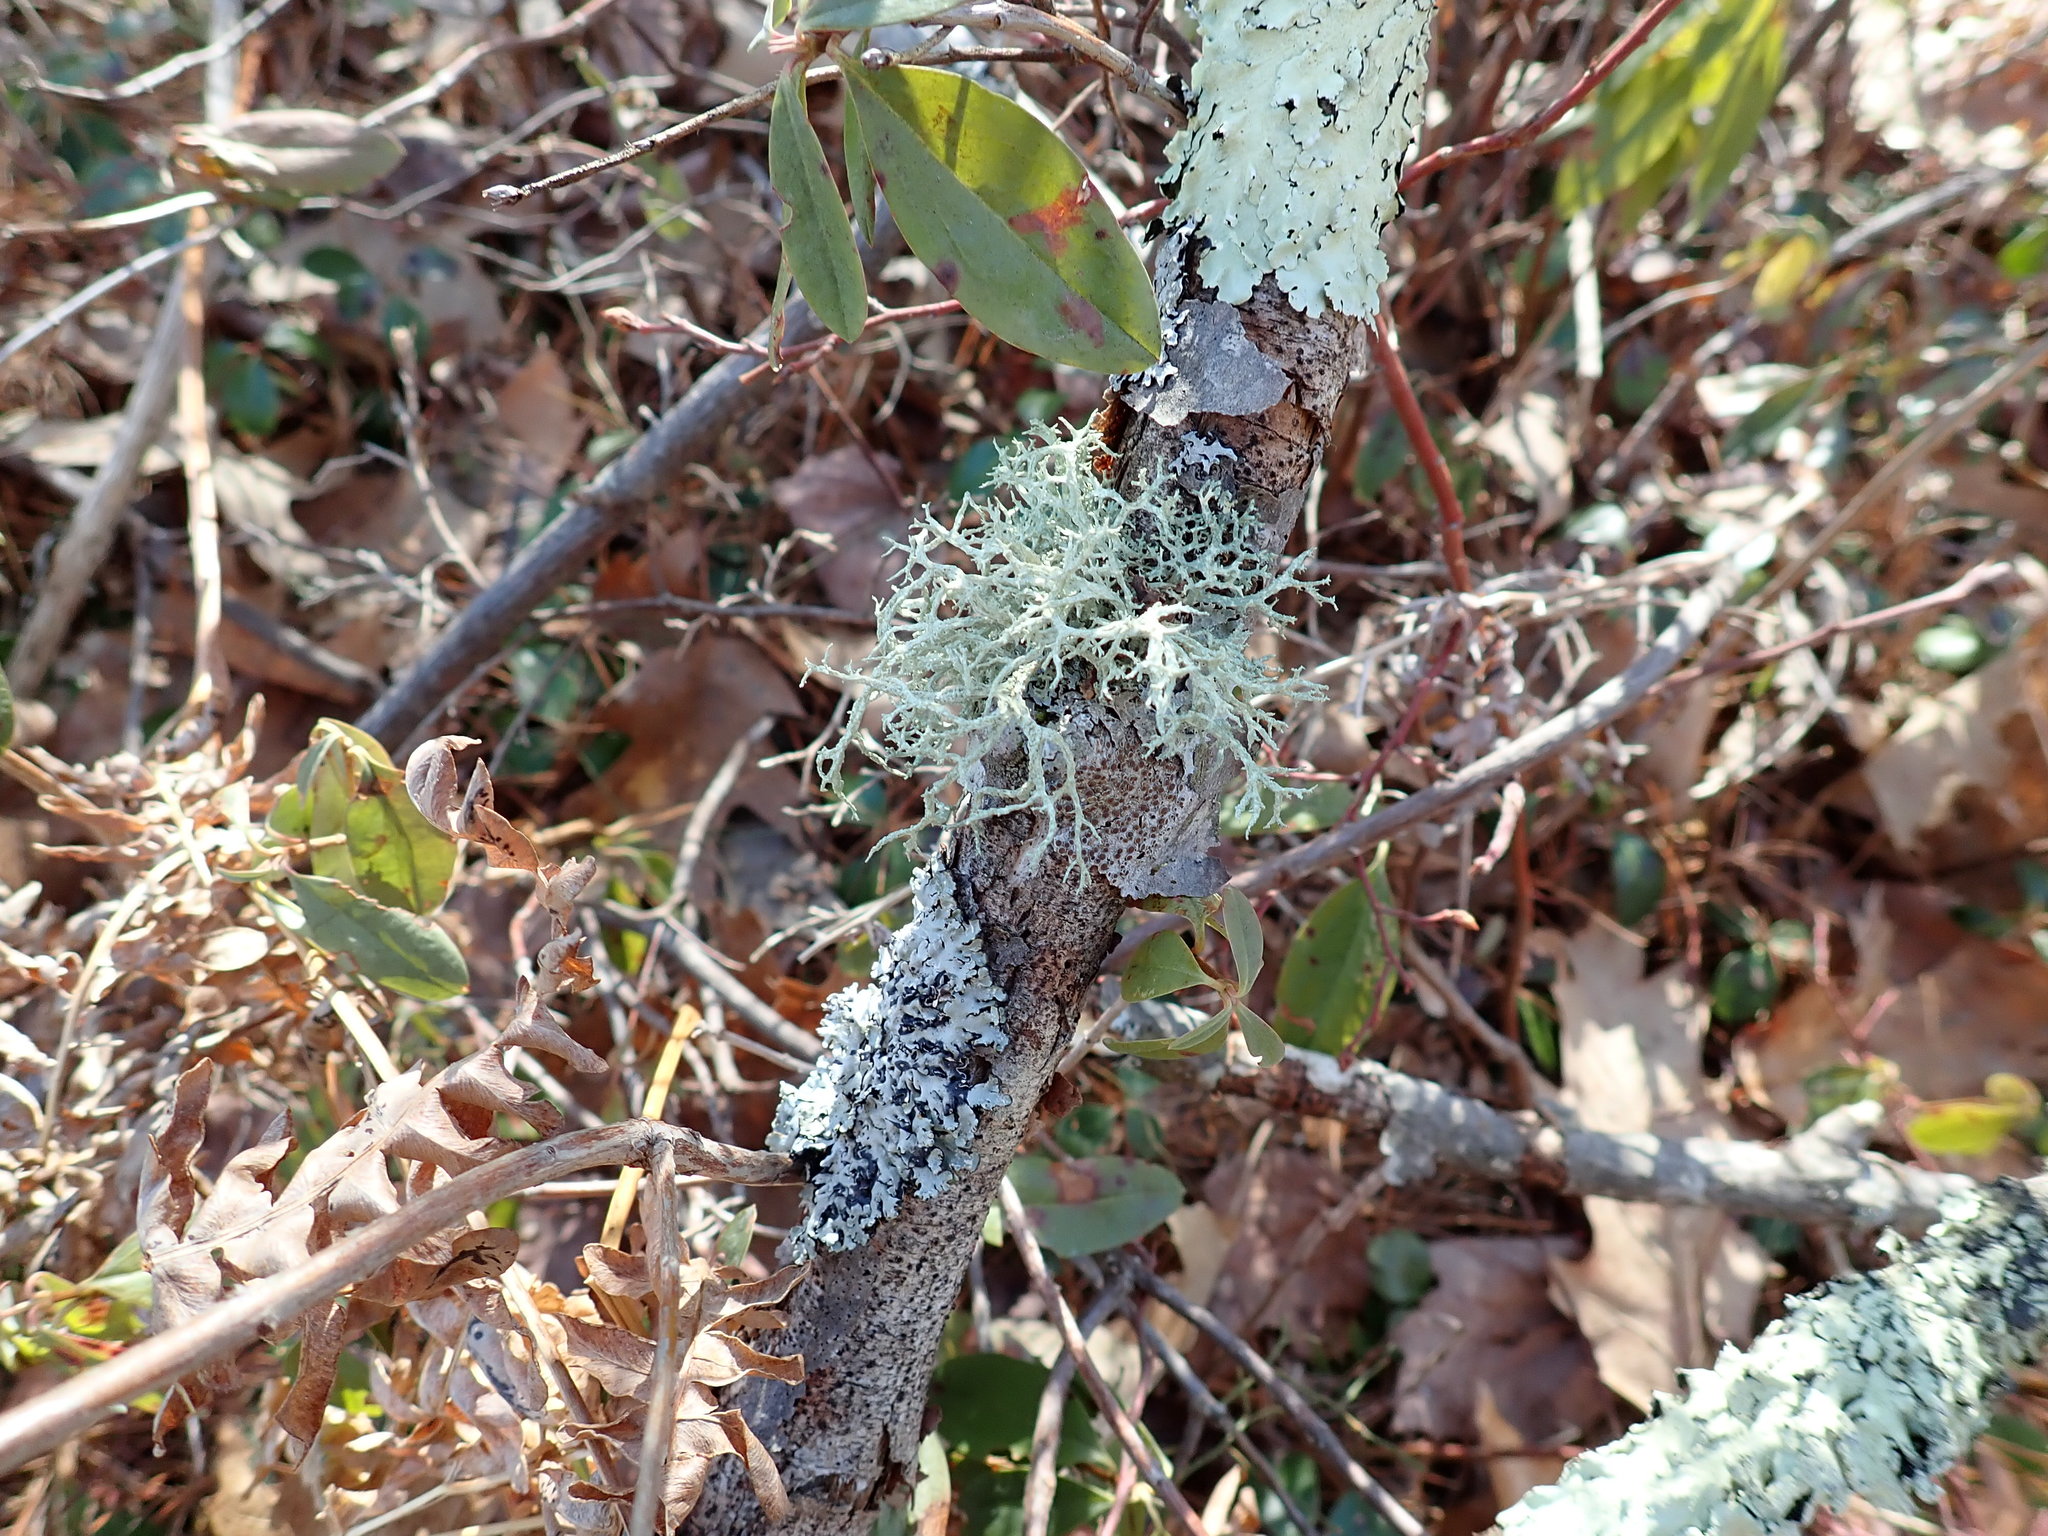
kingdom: Fungi
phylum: Ascomycota
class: Lecanoromycetes
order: Lecanorales
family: Parmeliaceae
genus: Evernia
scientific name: Evernia mesomorpha
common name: Boreal oak moss lichen
